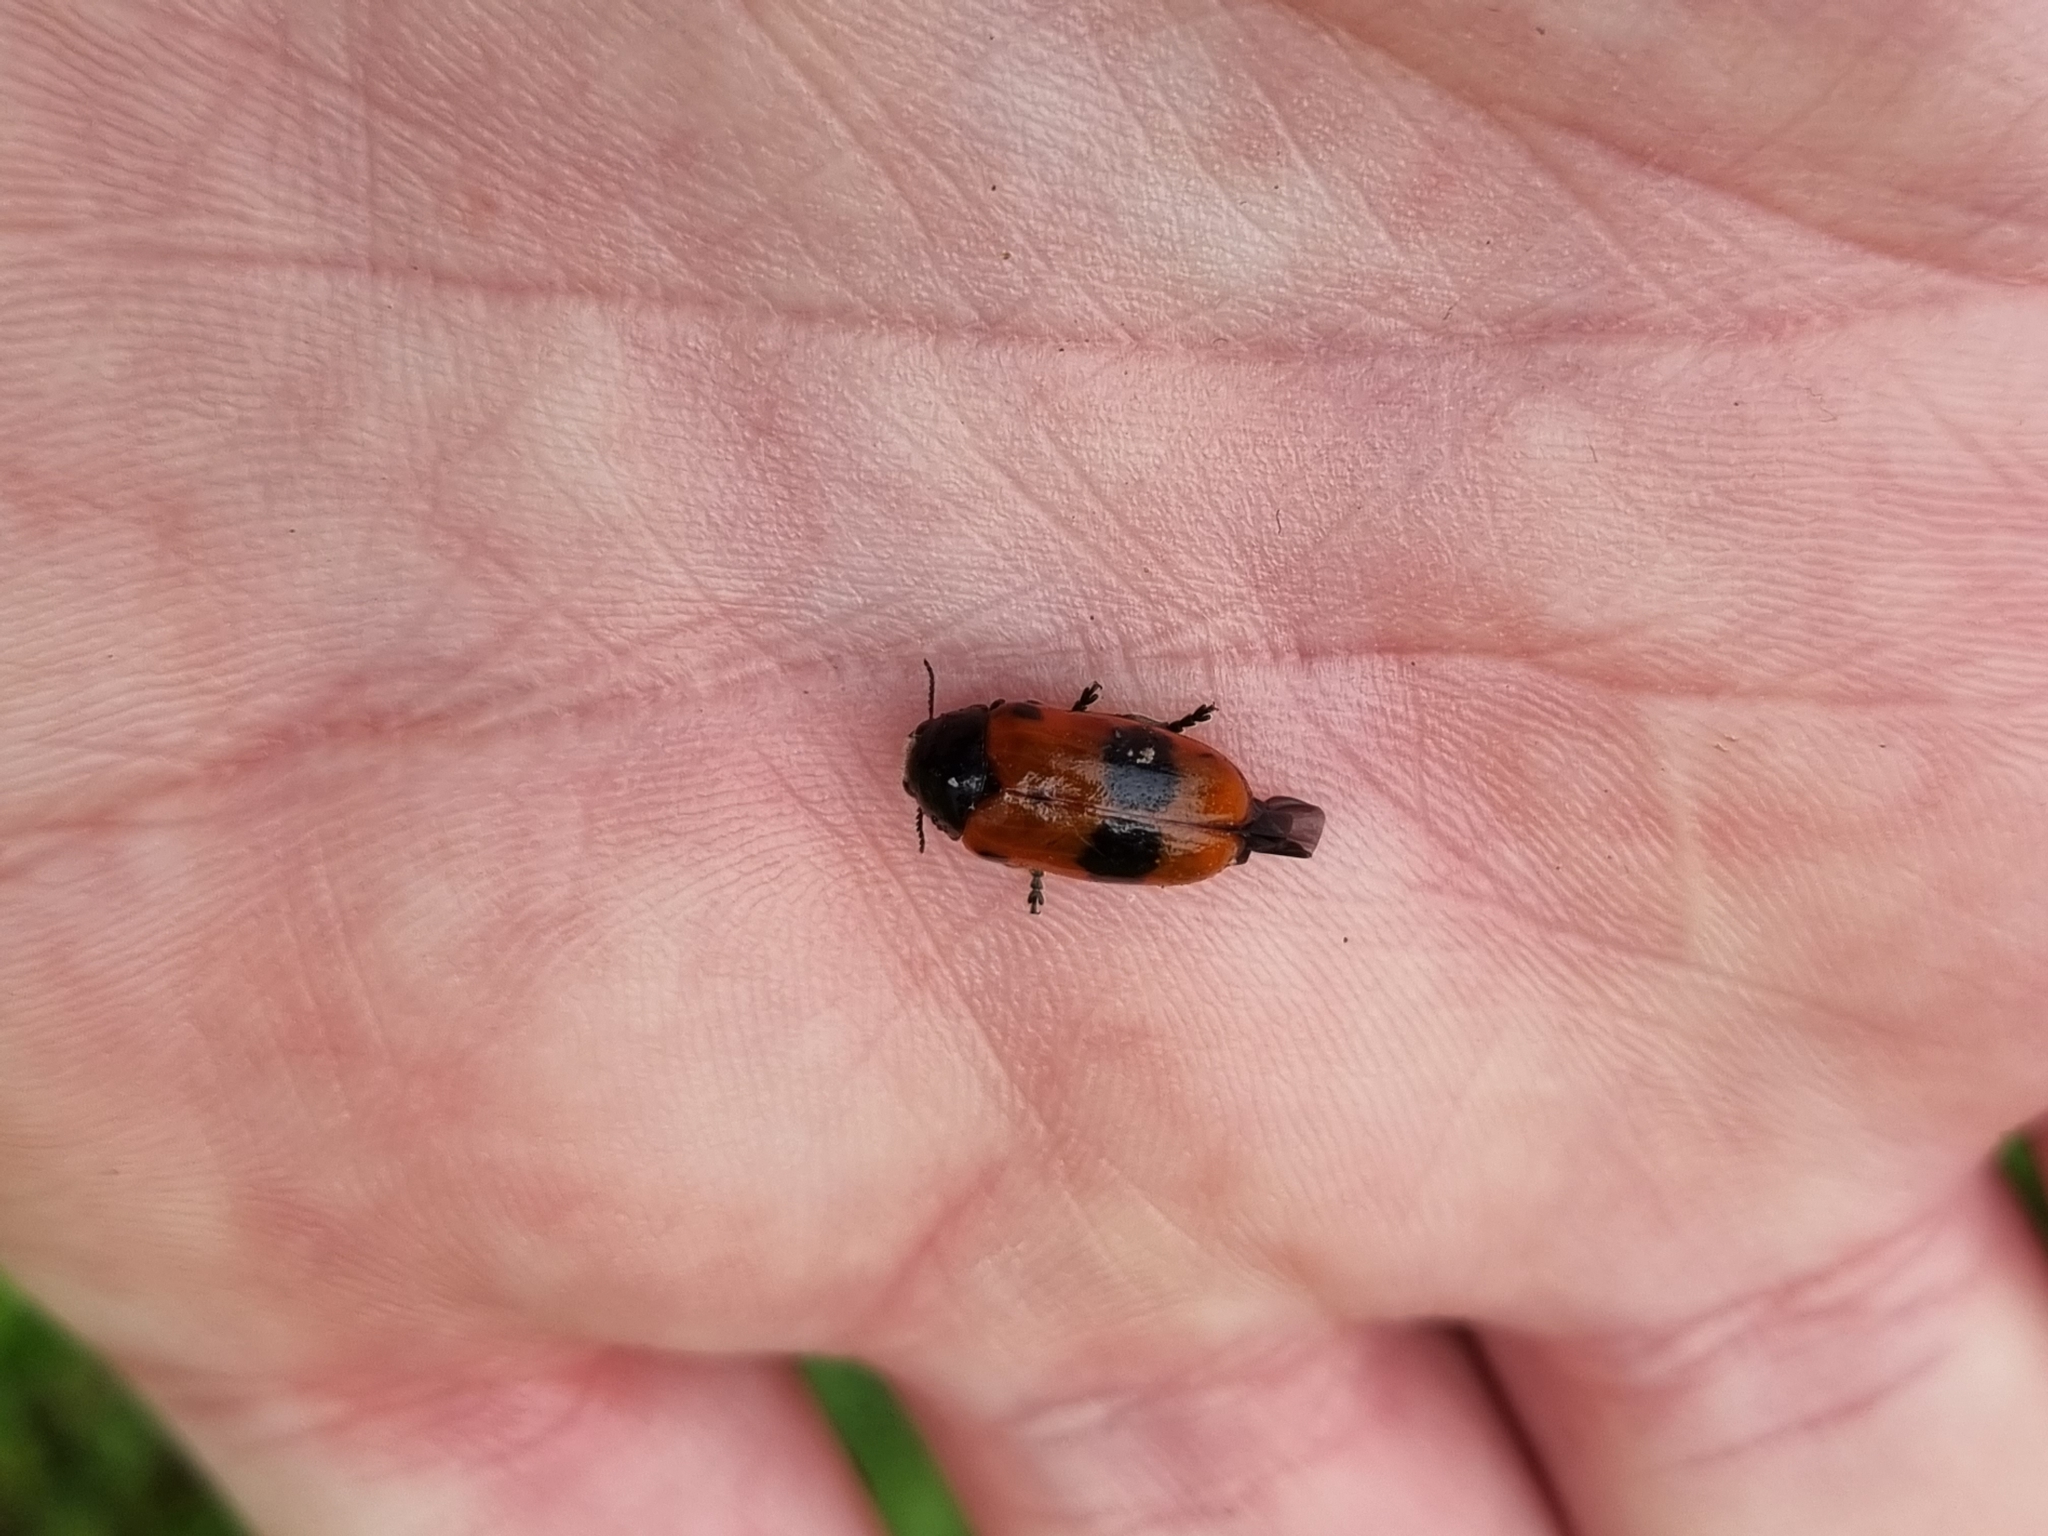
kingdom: Animalia
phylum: Arthropoda
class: Insecta
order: Coleoptera
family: Chrysomelidae
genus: Clytra
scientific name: Clytra laeviuscula
